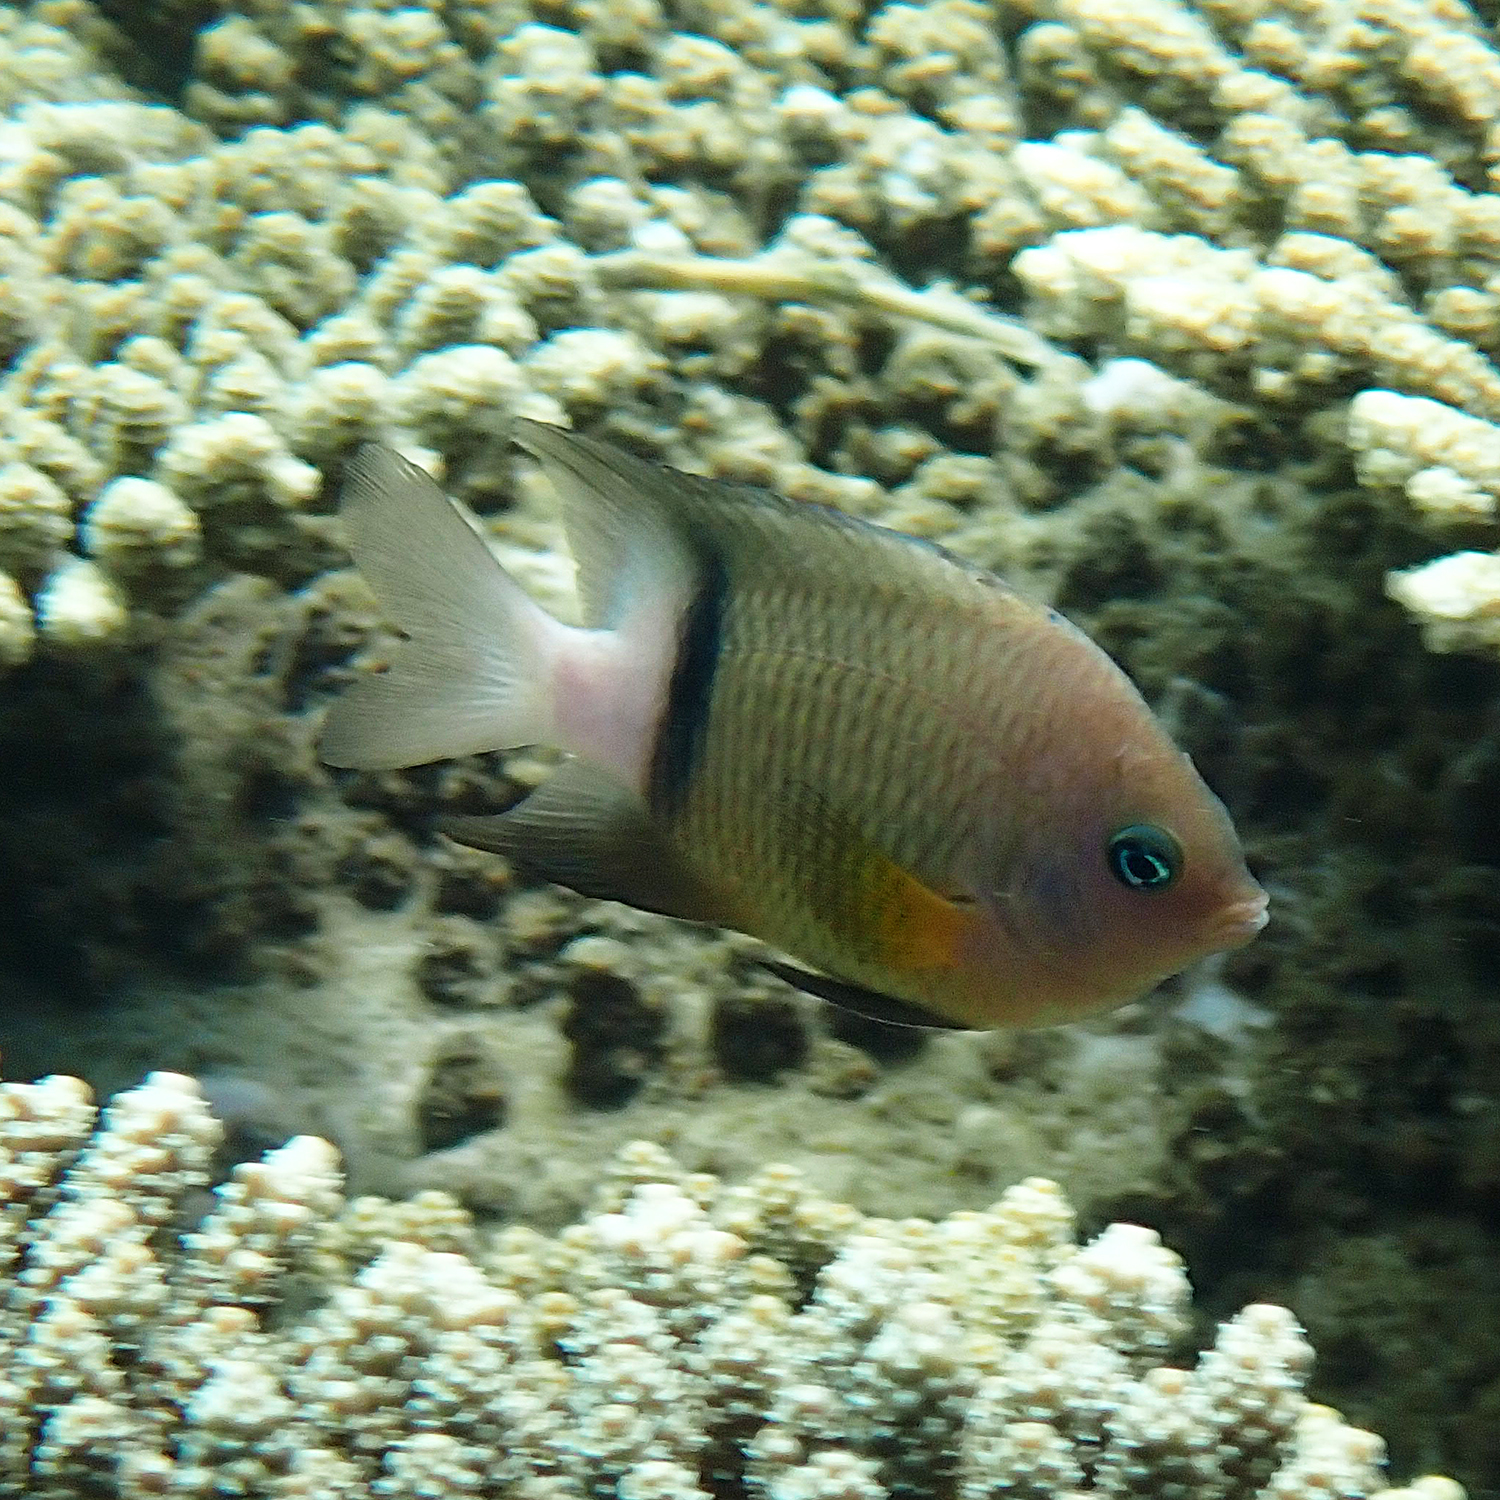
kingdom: Animalia
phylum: Chordata
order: Perciformes
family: Pomacentridae
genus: Plectroglyphidodon
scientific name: Plectroglyphidodon dickii
